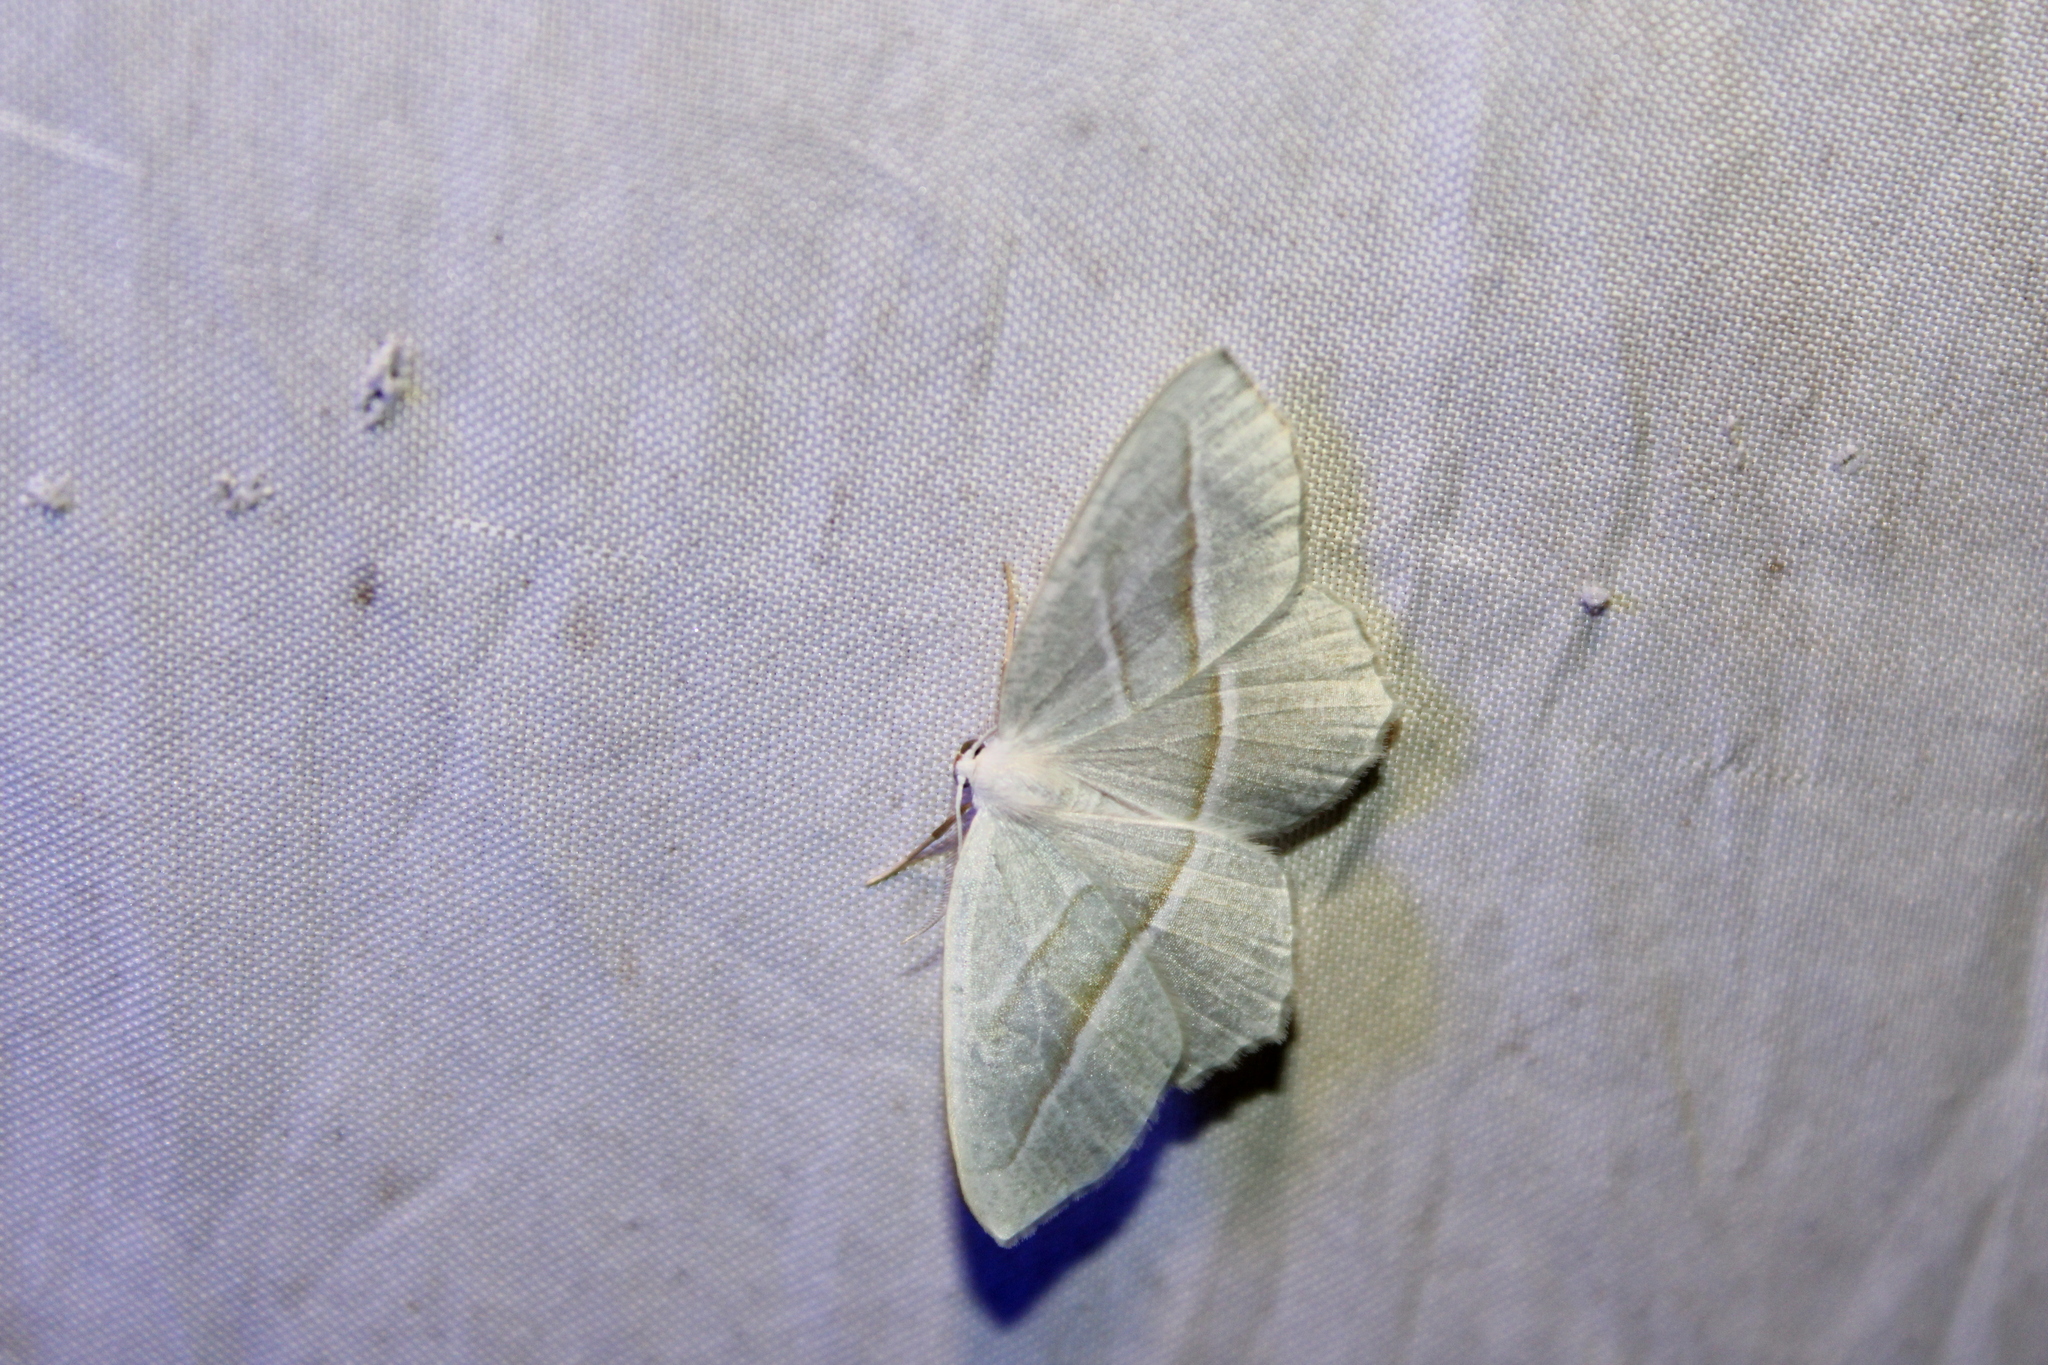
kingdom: Animalia
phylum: Arthropoda
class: Insecta
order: Lepidoptera
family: Geometridae
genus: Campaea
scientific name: Campaea perlata
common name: Fringed looper
